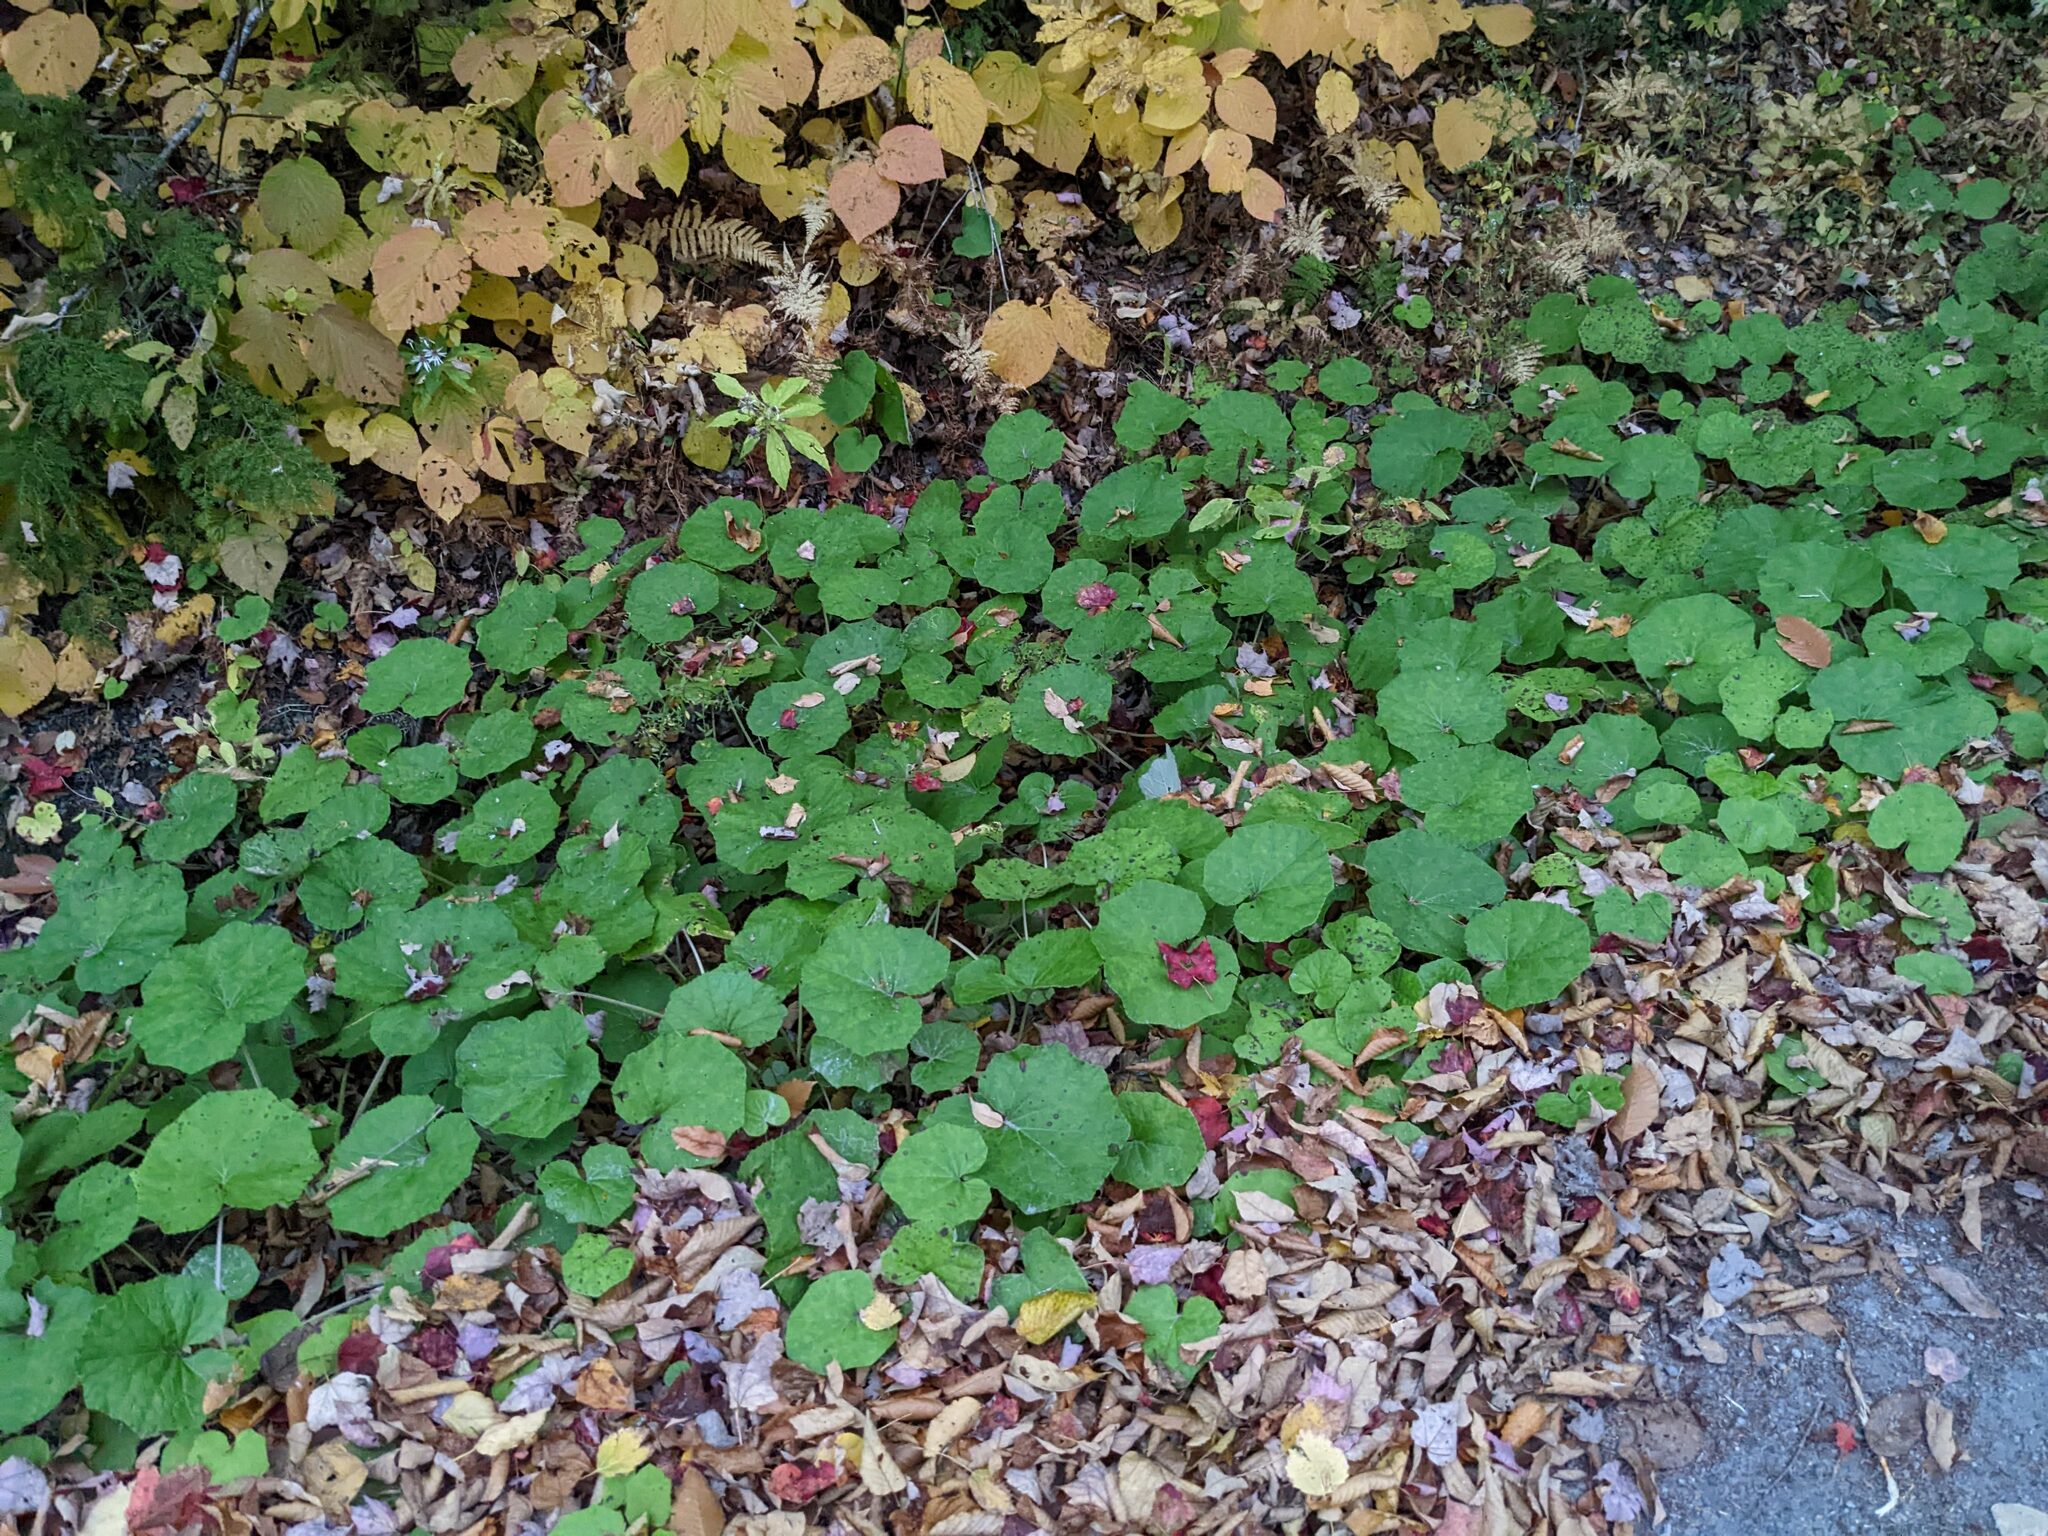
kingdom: Plantae
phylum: Tracheophyta
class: Magnoliopsida
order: Asterales
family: Asteraceae
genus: Tussilago
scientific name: Tussilago farfara
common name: Coltsfoot
